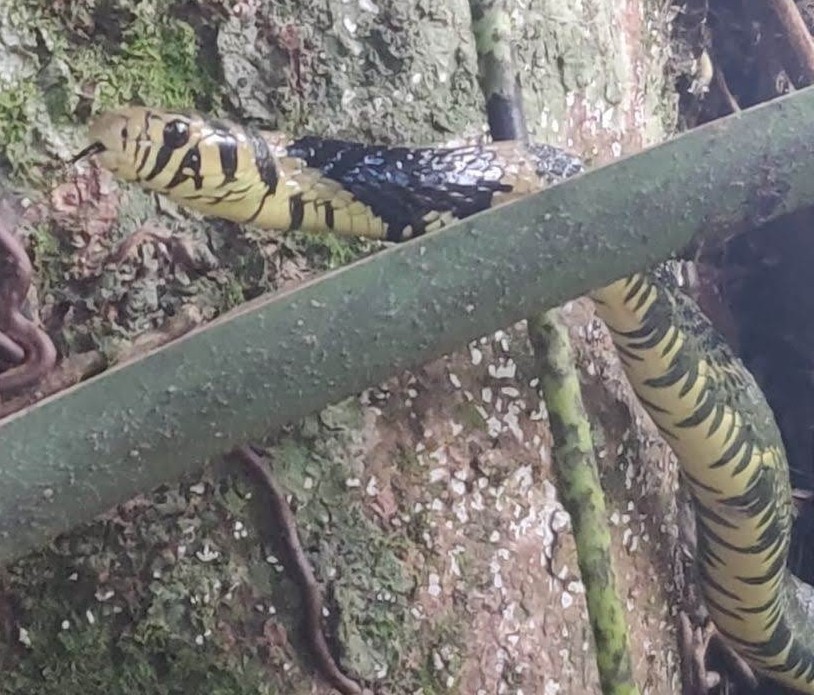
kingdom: Animalia
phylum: Chordata
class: Squamata
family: Colubridae
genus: Spilotes
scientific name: Spilotes pullatus
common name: Chicken snake
